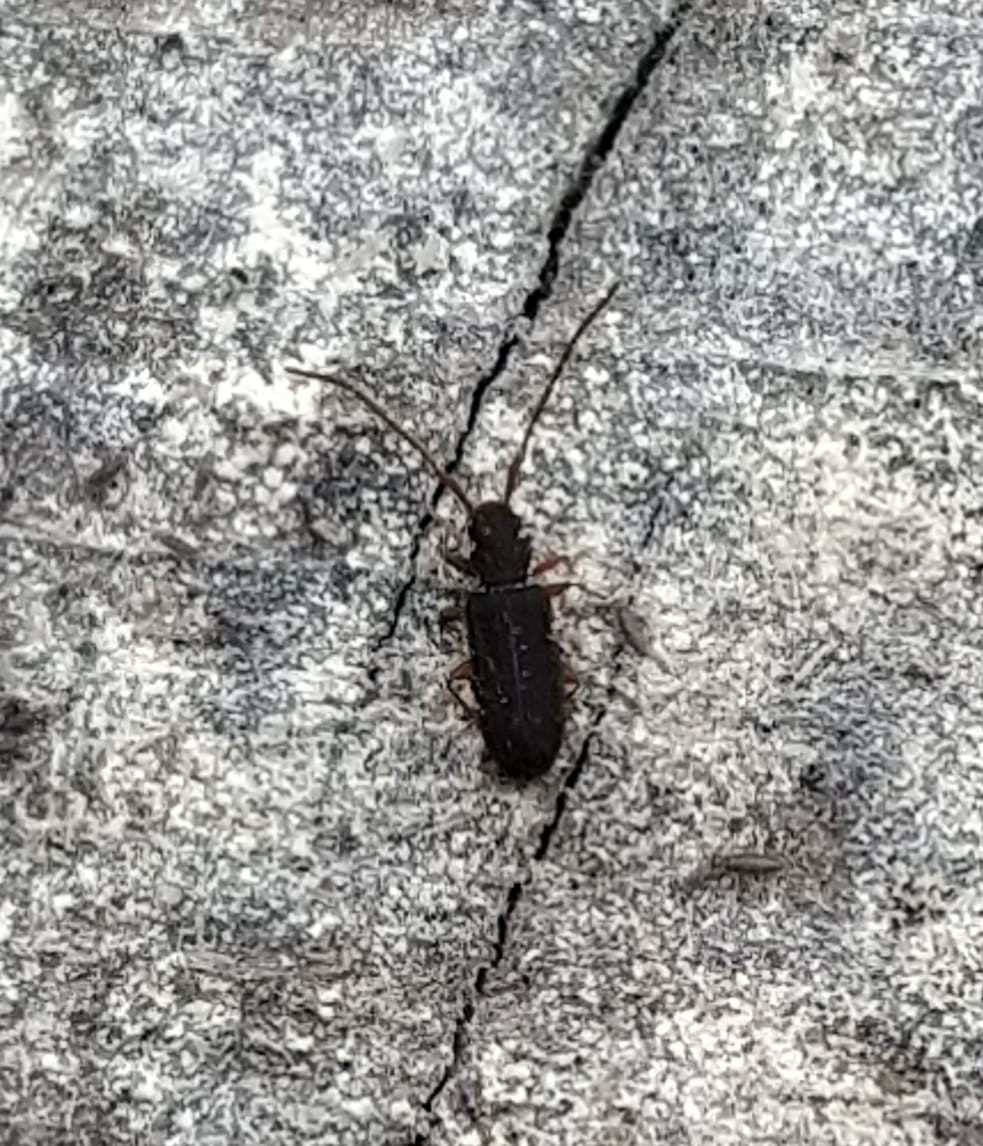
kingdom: Animalia
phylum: Arthropoda
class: Insecta
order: Coleoptera
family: Silvanidae
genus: Uleiota
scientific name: Uleiota planatus
